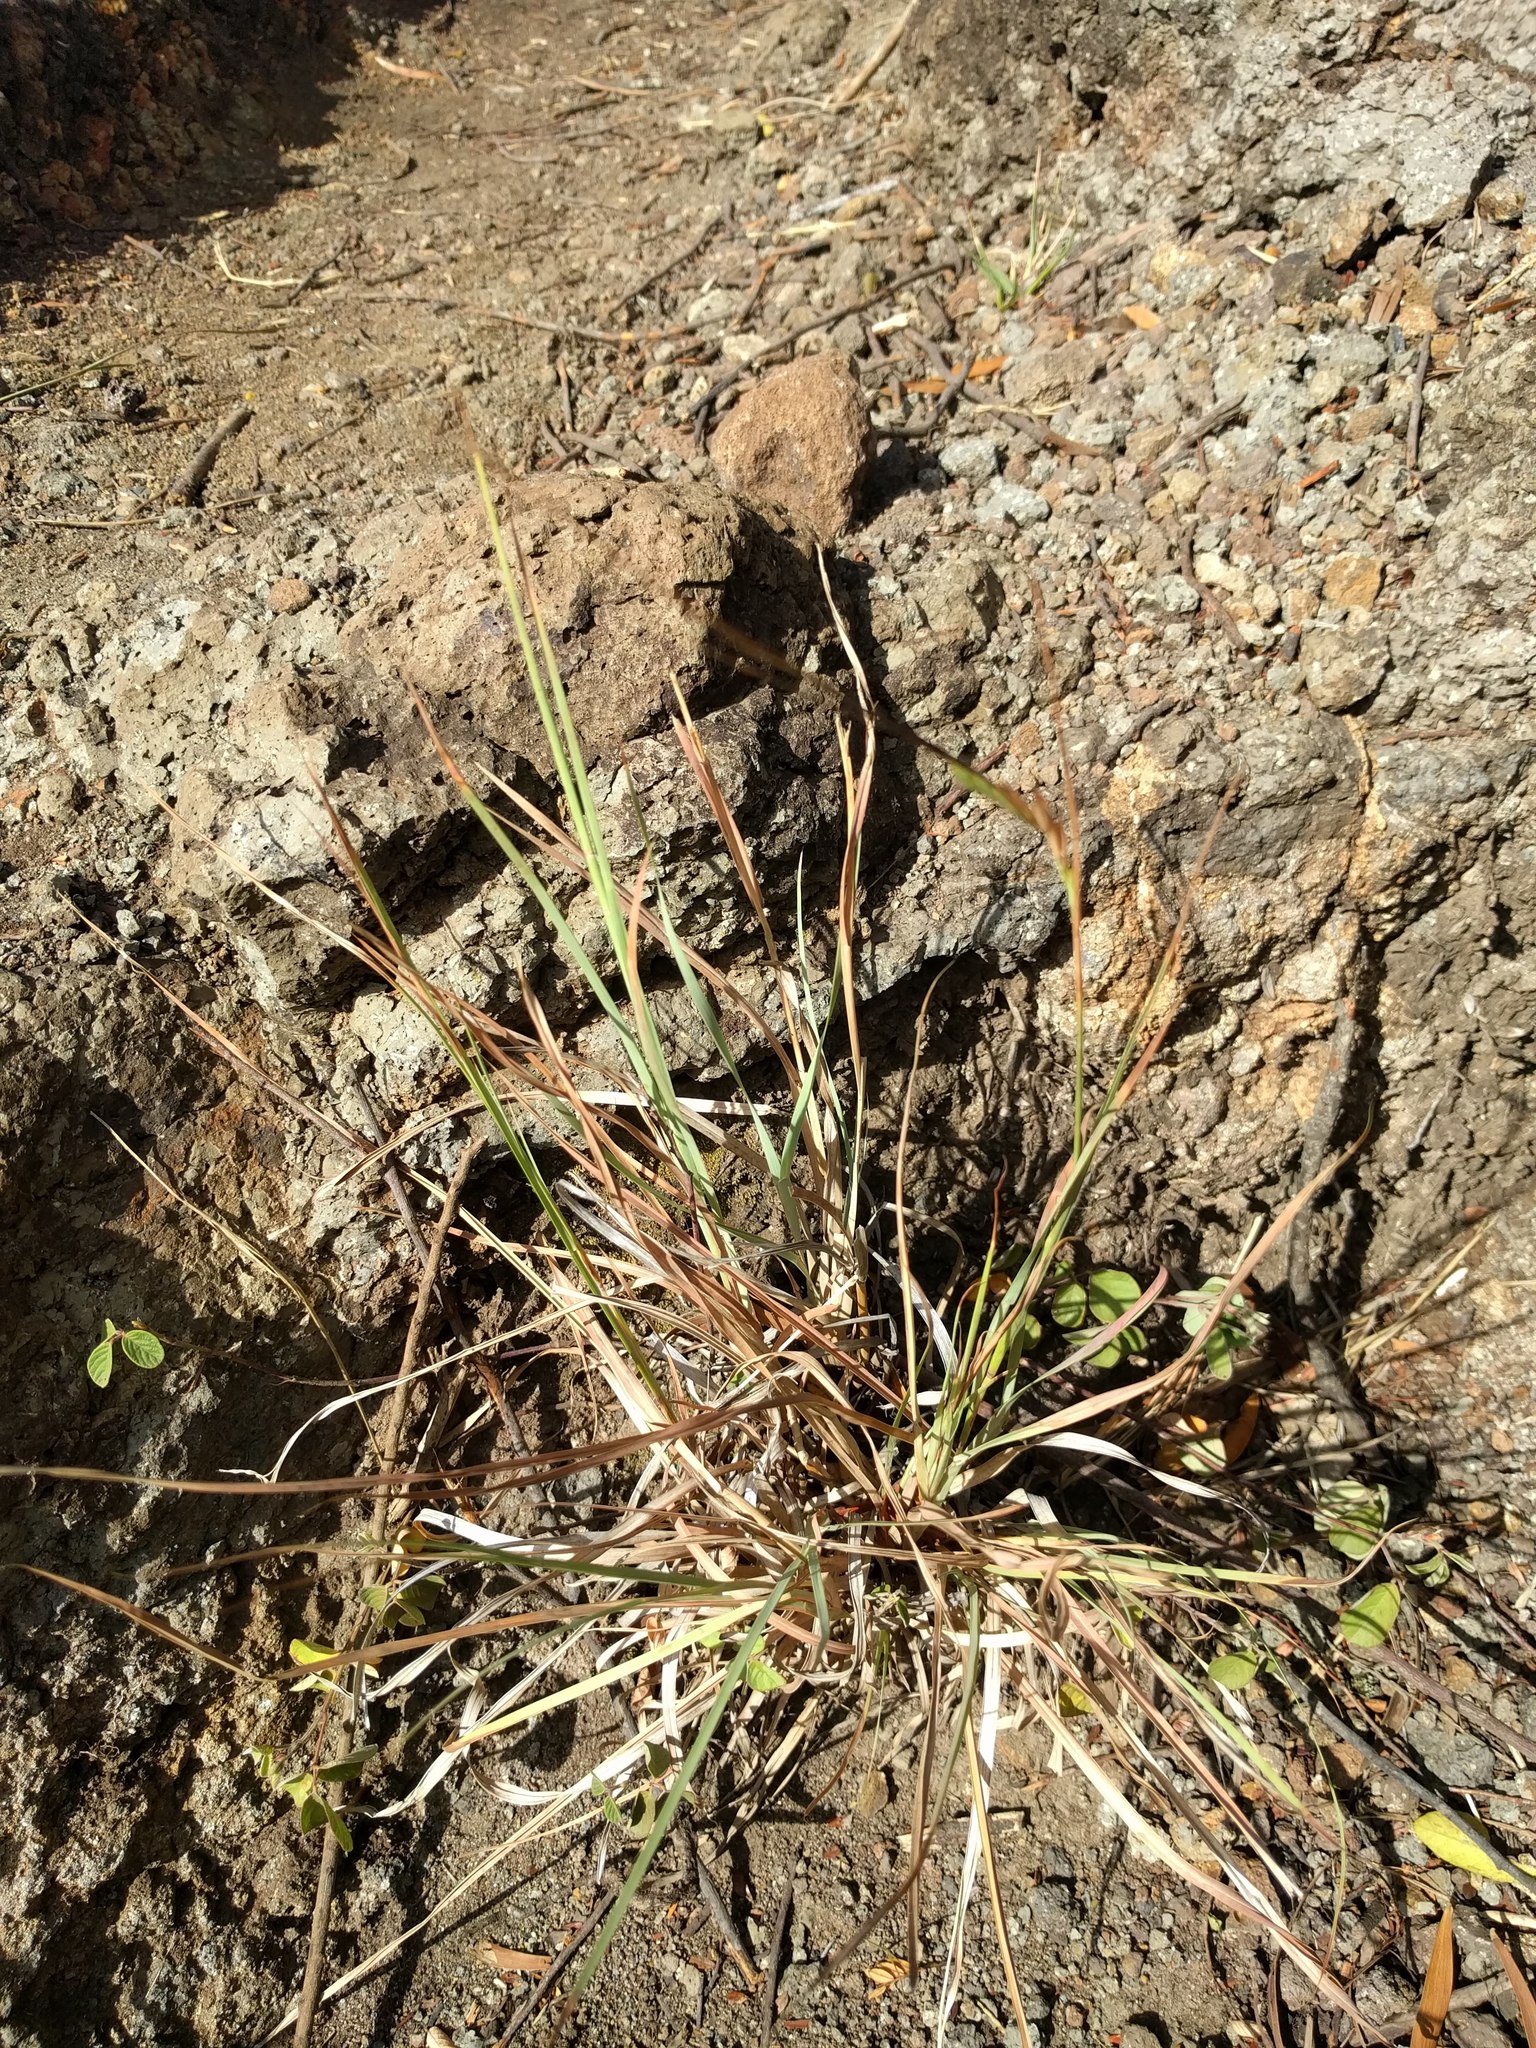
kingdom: Plantae
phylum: Tracheophyta
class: Liliopsida
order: Poales
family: Poaceae
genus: Heteropogon
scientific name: Heteropogon contortus
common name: Tanglehead
